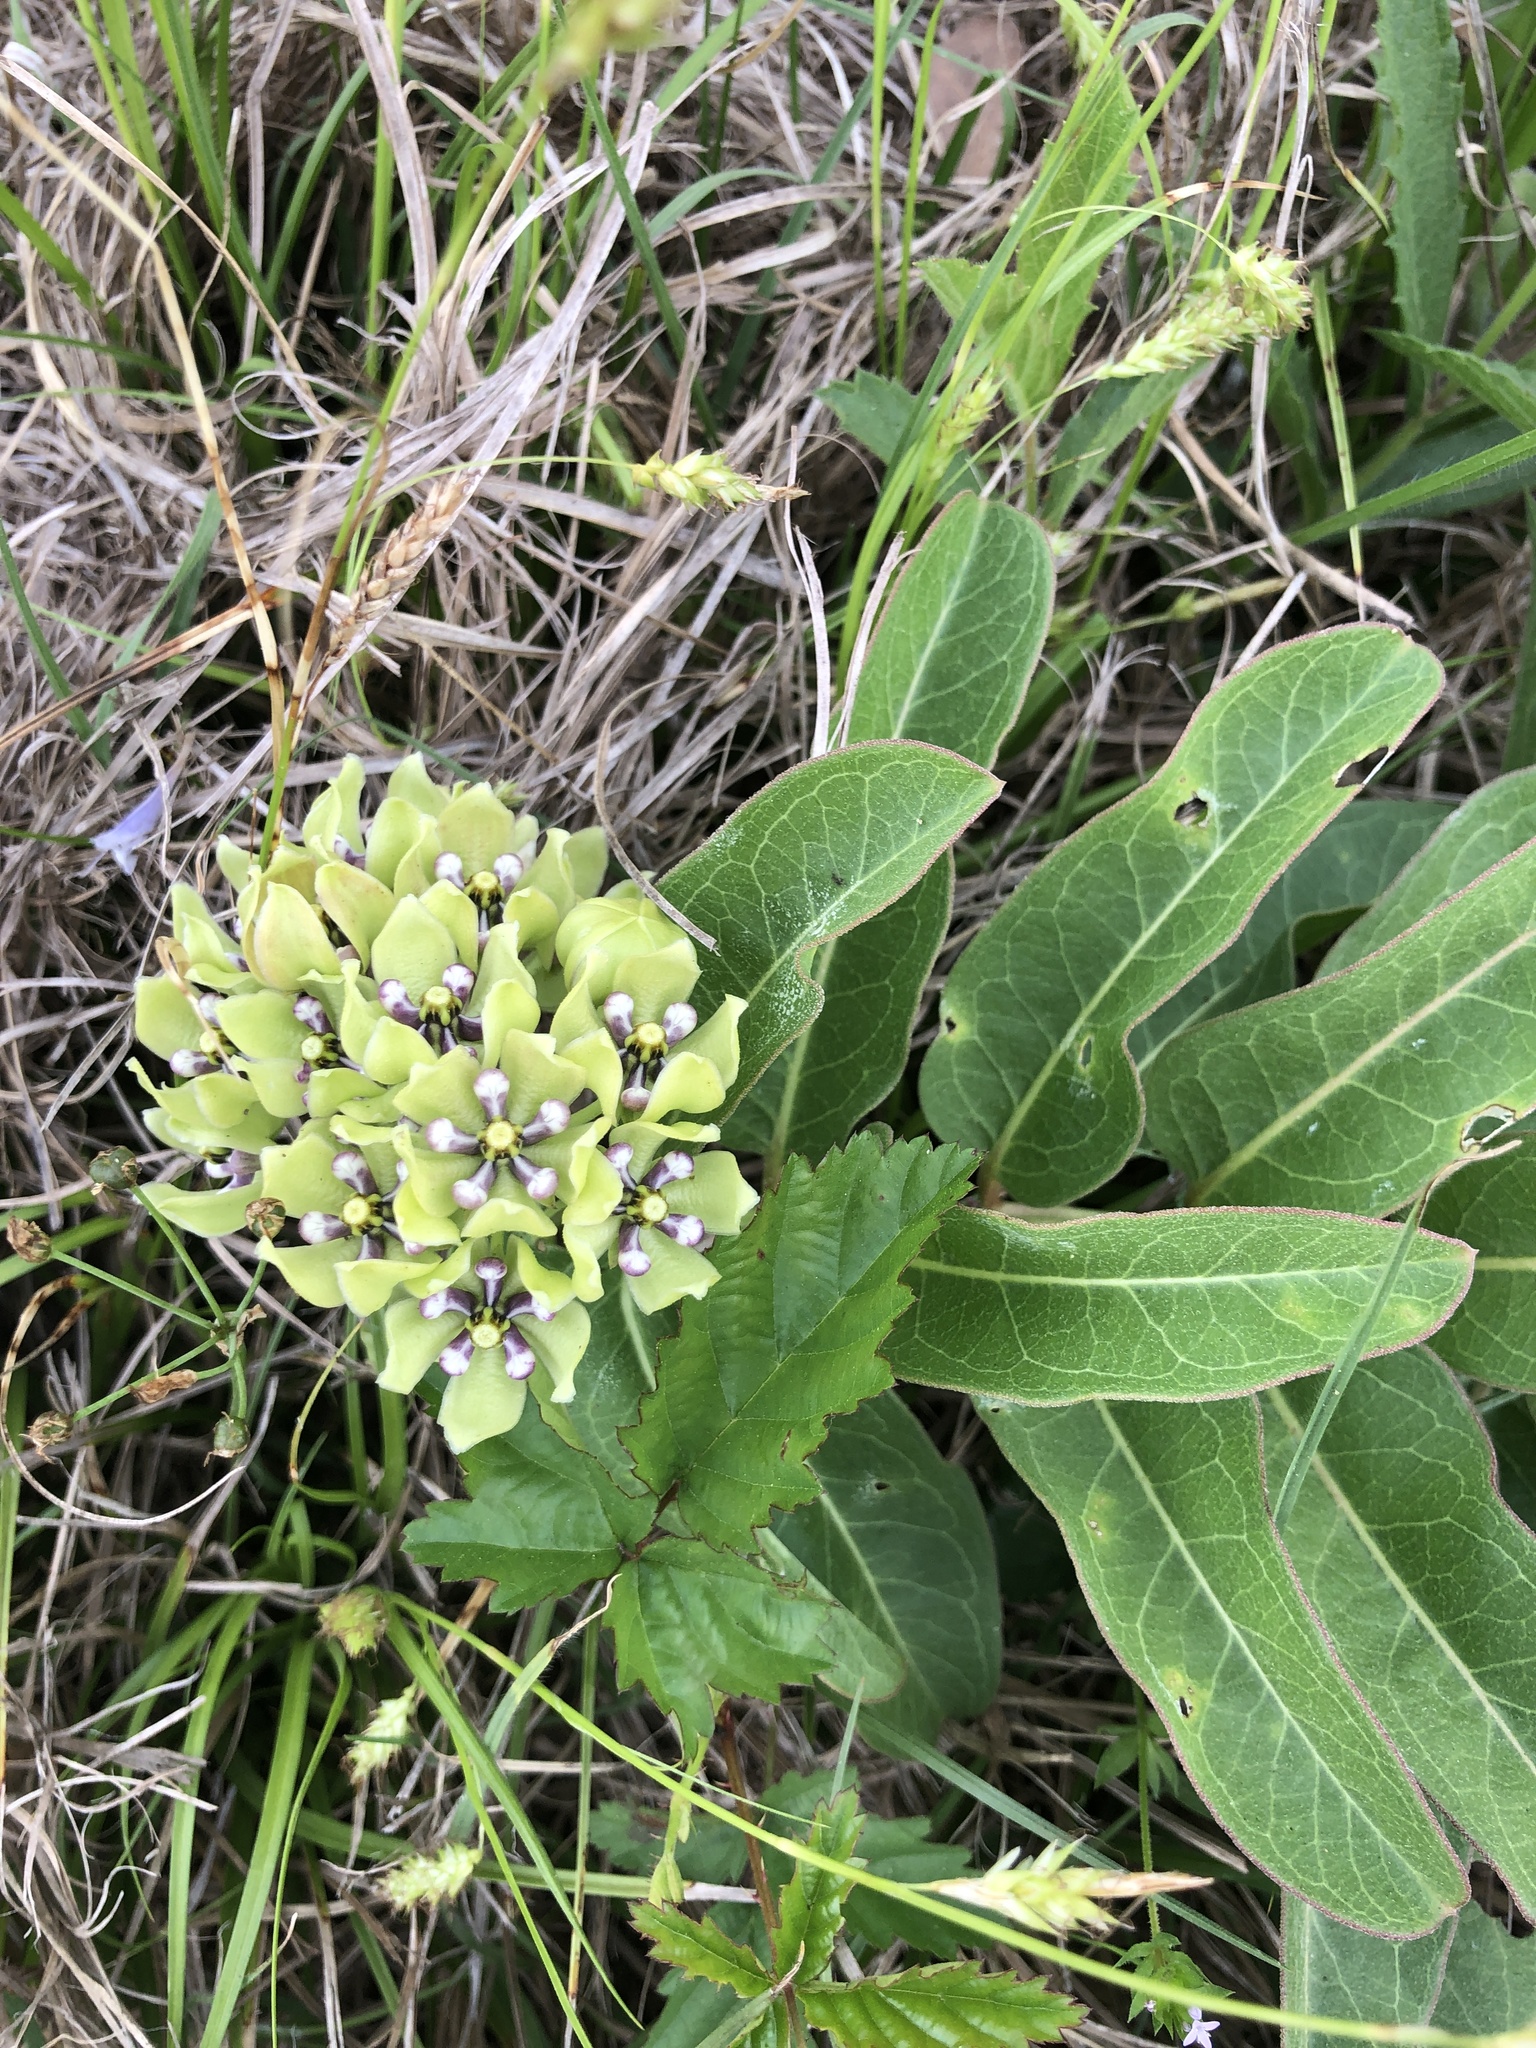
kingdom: Plantae
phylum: Tracheophyta
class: Magnoliopsida
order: Gentianales
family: Apocynaceae
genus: Asclepias
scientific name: Asclepias viridis
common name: Antelope-horns
